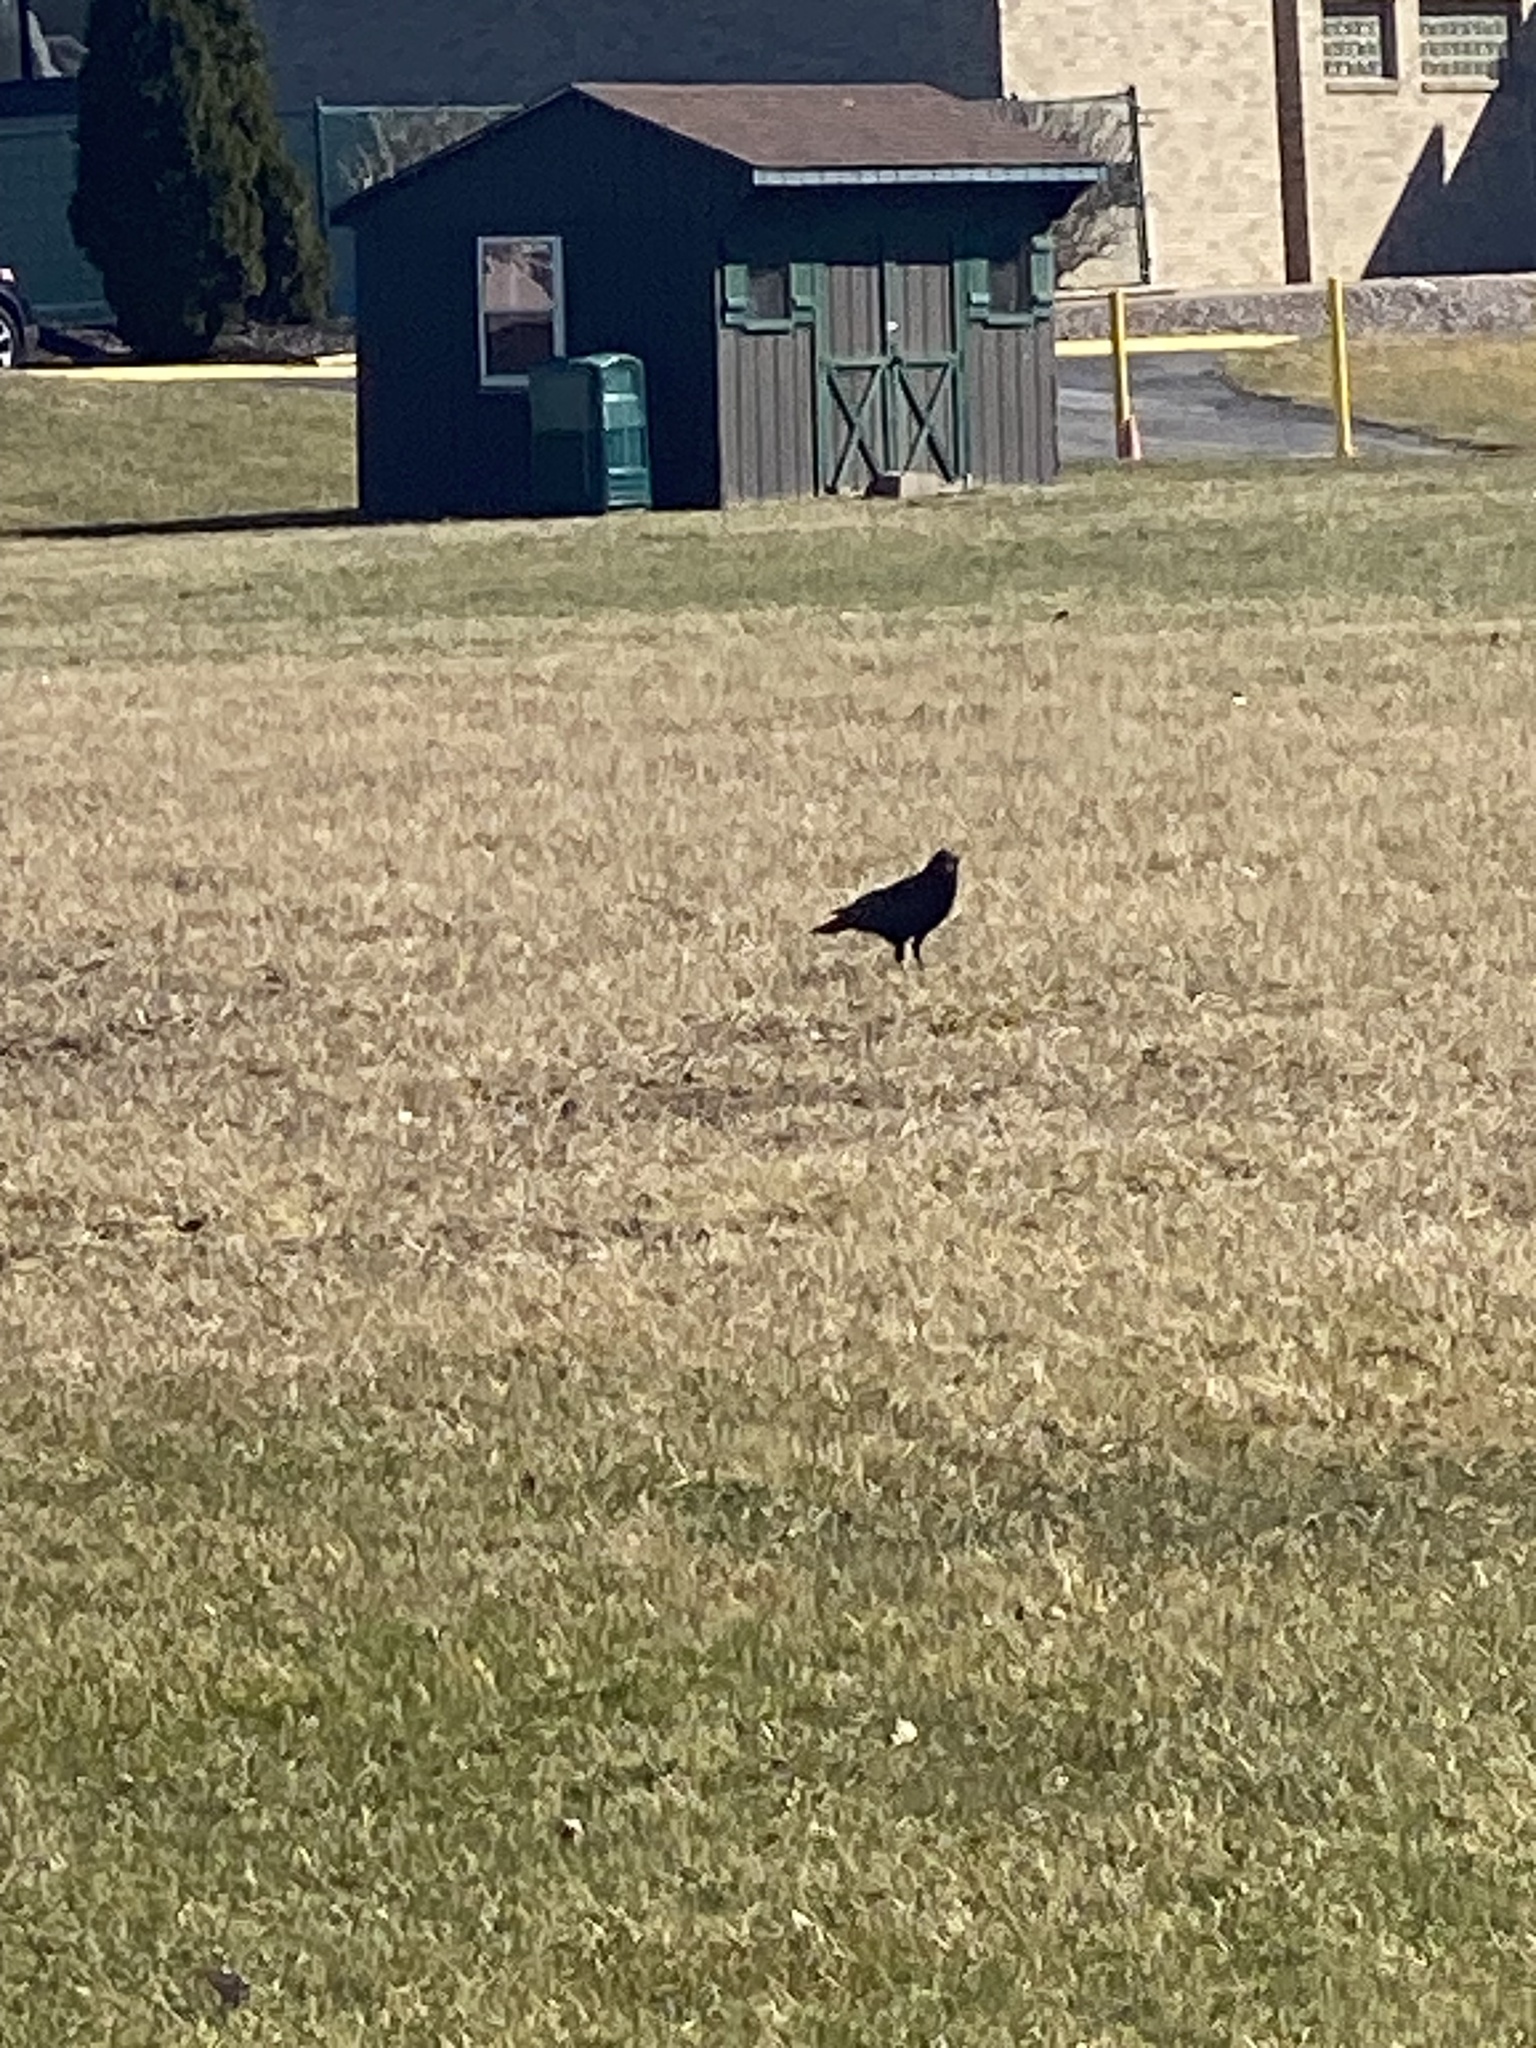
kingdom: Animalia
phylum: Chordata
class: Aves
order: Passeriformes
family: Corvidae
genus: Corvus
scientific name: Corvus brachyrhynchos
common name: American crow
